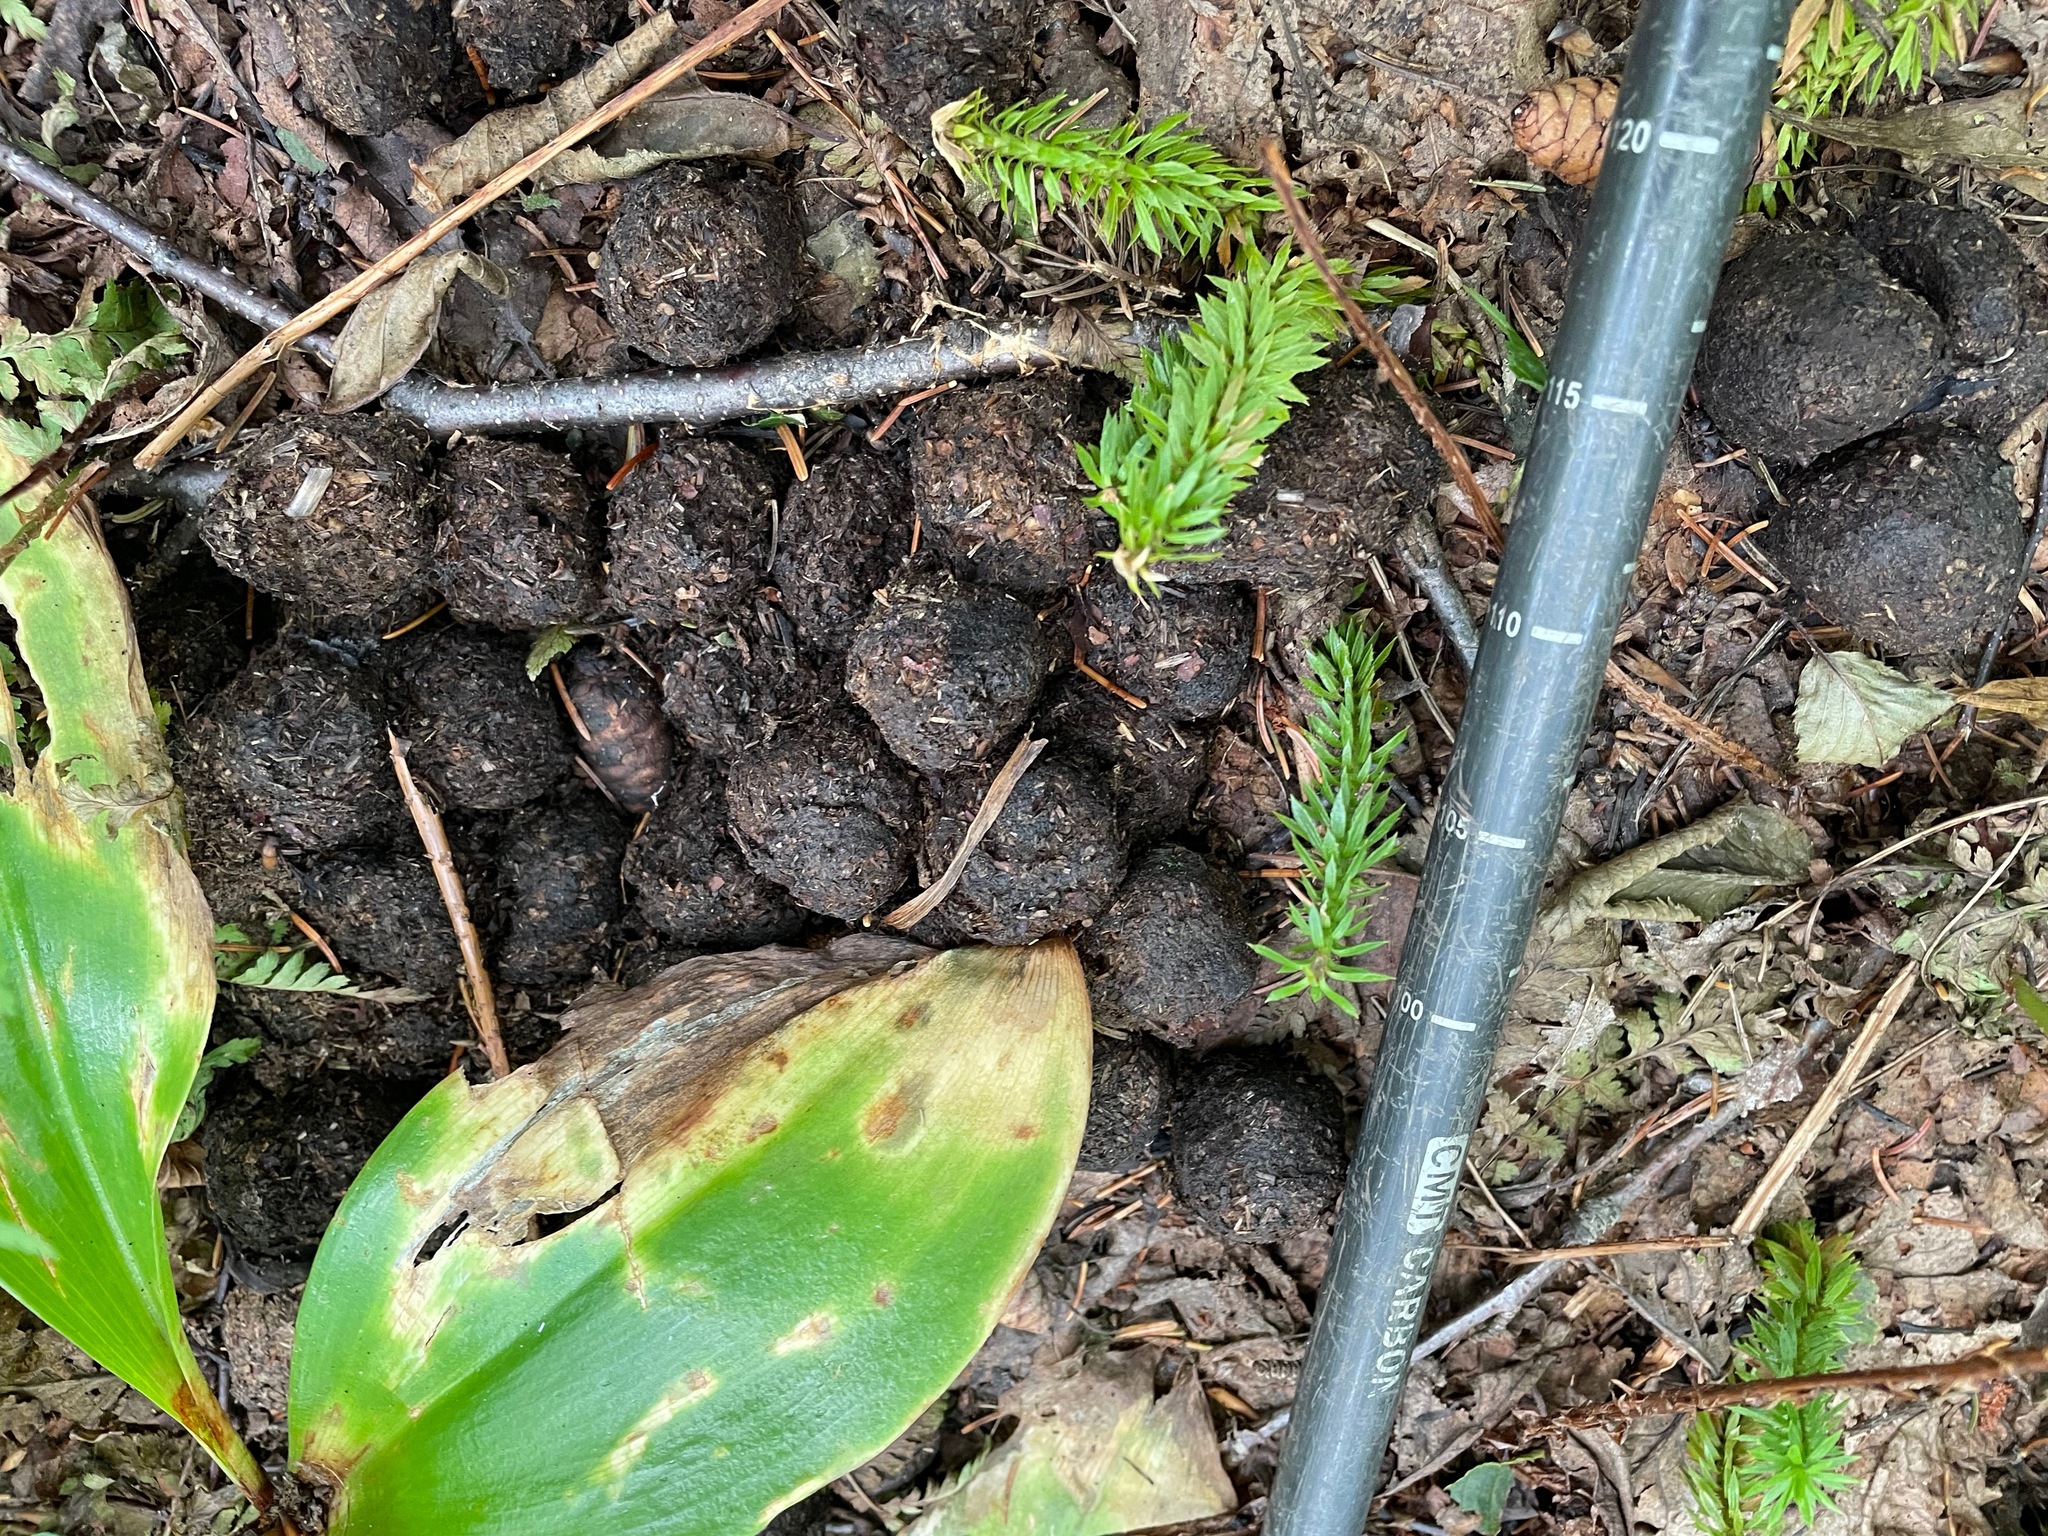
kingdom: Animalia
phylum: Chordata
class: Mammalia
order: Artiodactyla
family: Cervidae
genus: Alces
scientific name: Alces alces
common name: Moose
